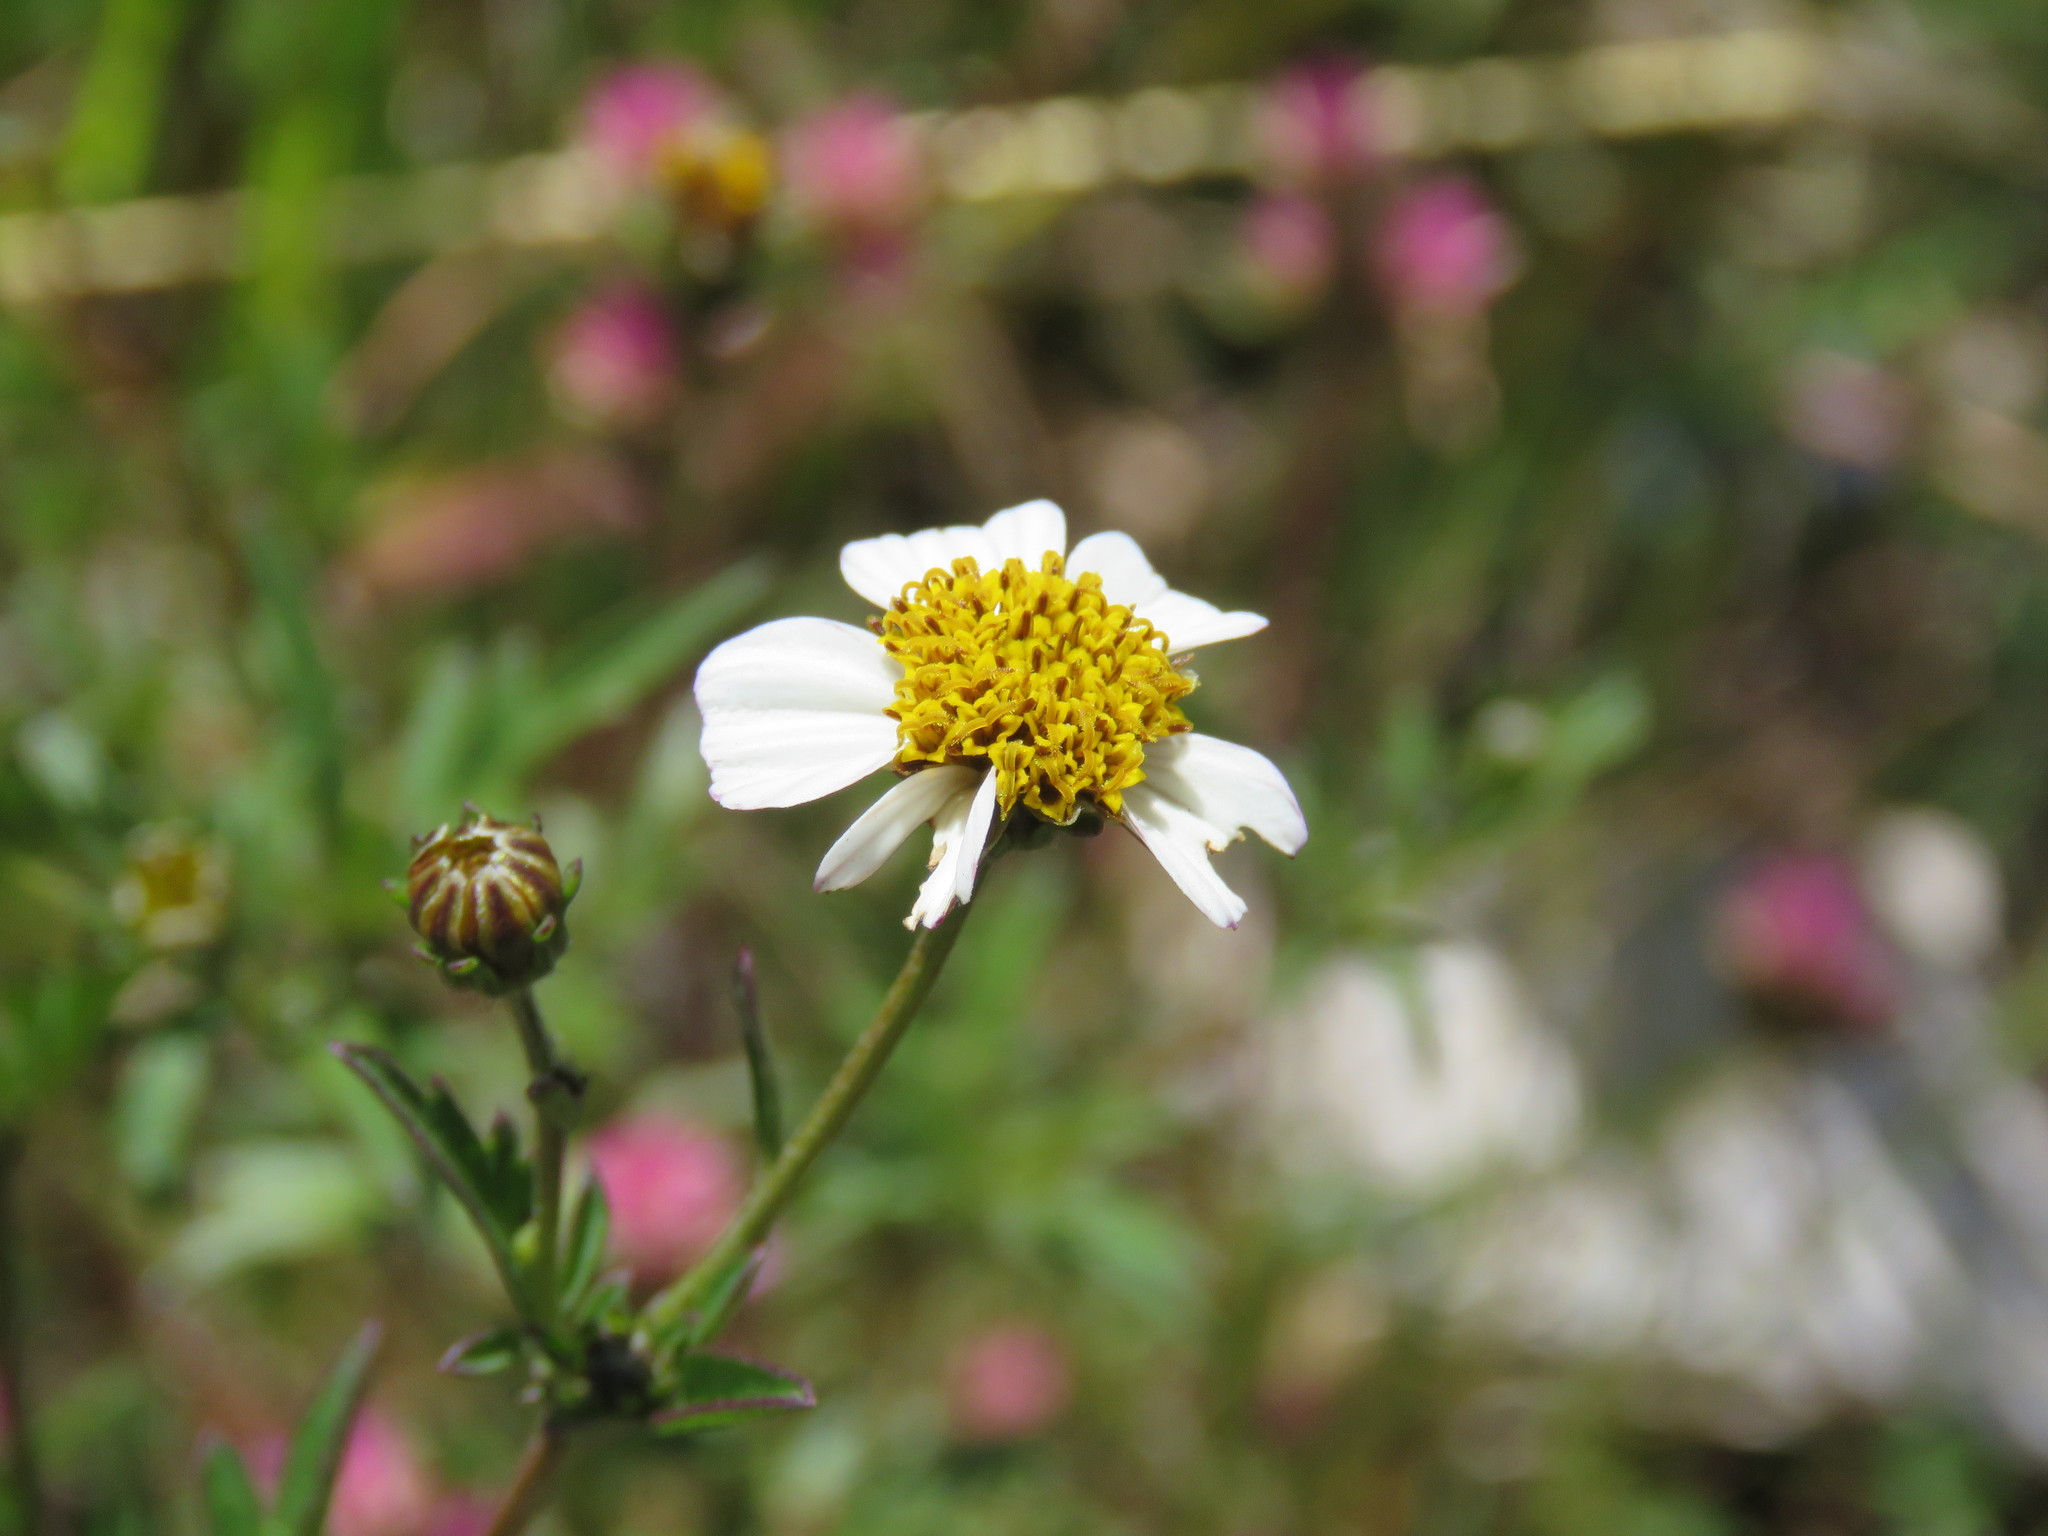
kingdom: Plantae
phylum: Tracheophyta
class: Magnoliopsida
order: Asterales
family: Asteraceae
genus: Bidens
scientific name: Bidens pilosa
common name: Black-jack
